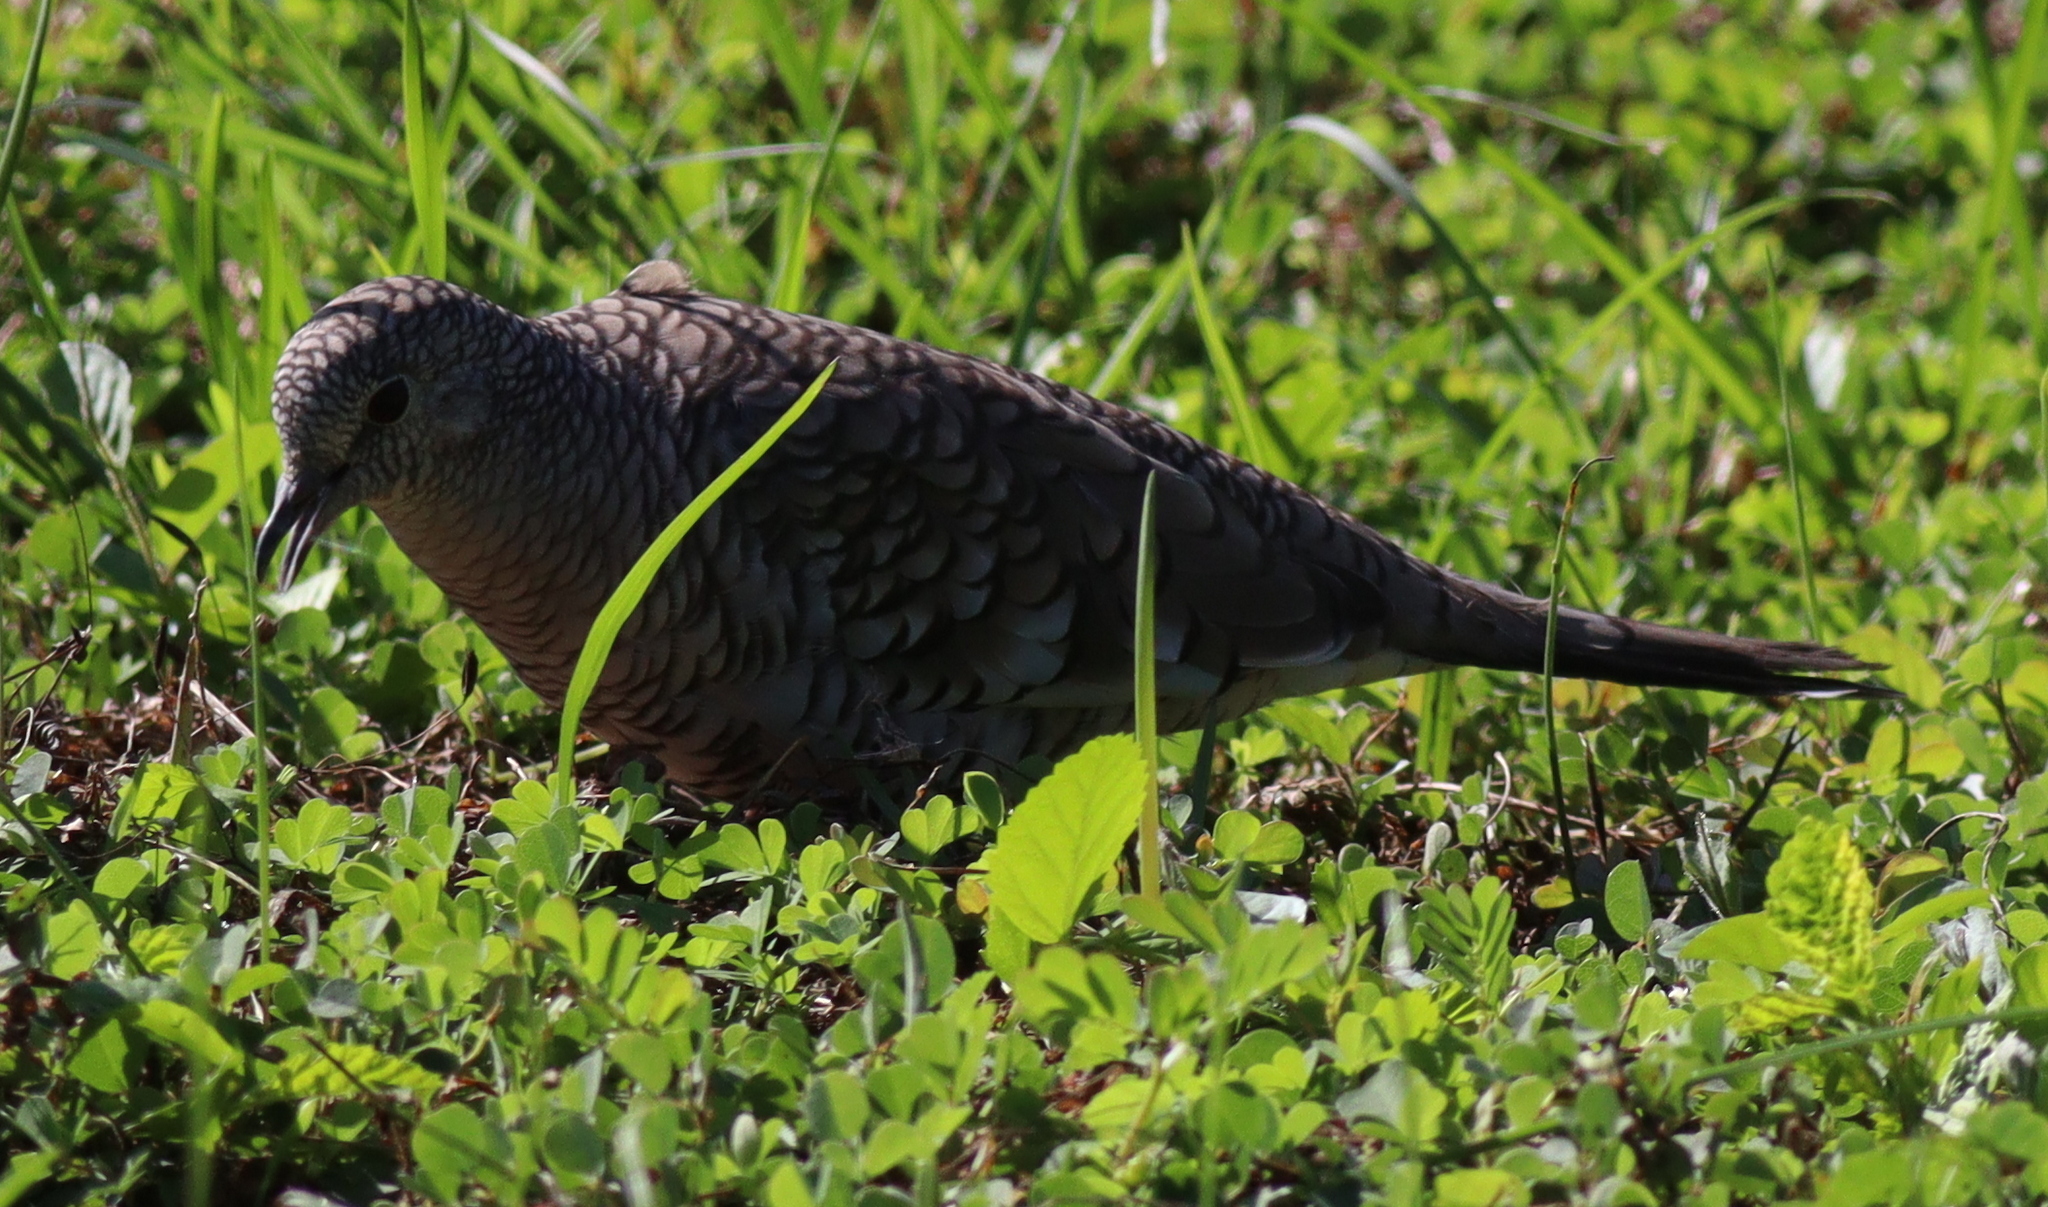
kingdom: Animalia
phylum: Chordata
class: Aves
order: Columbiformes
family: Columbidae
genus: Columbina
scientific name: Columbina squammata
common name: Scaled dove
